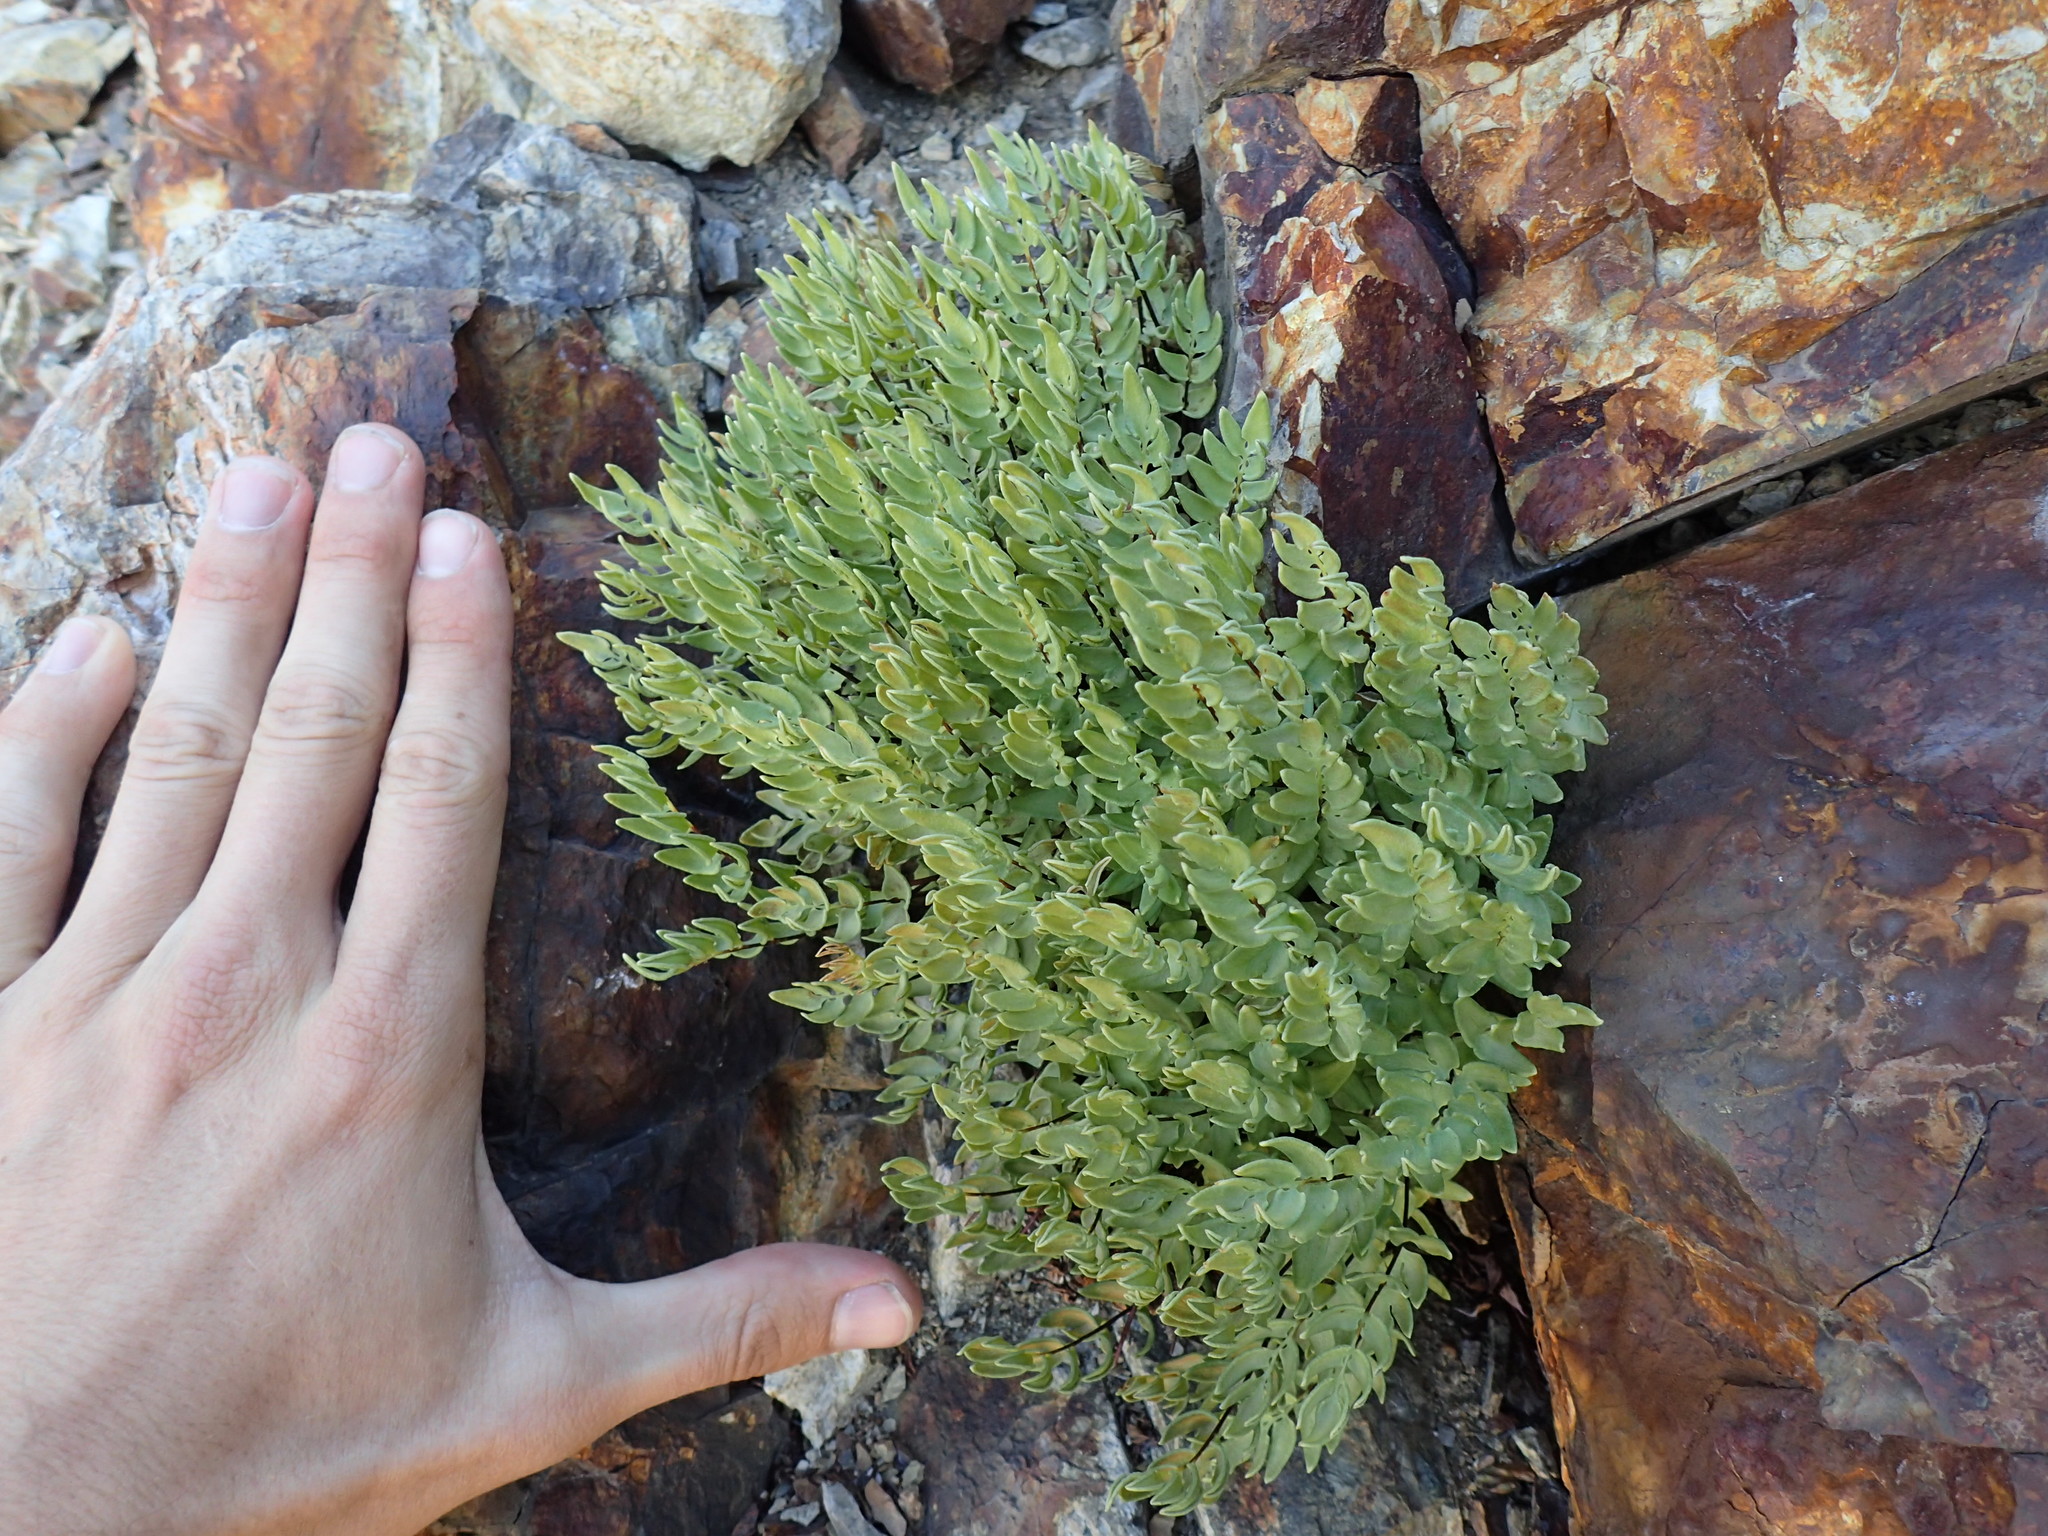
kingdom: Plantae
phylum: Tracheophyta
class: Polypodiopsida
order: Polypodiales
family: Pteridaceae
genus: Pellaea
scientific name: Pellaea breweri
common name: Brewer's cliffbrake
